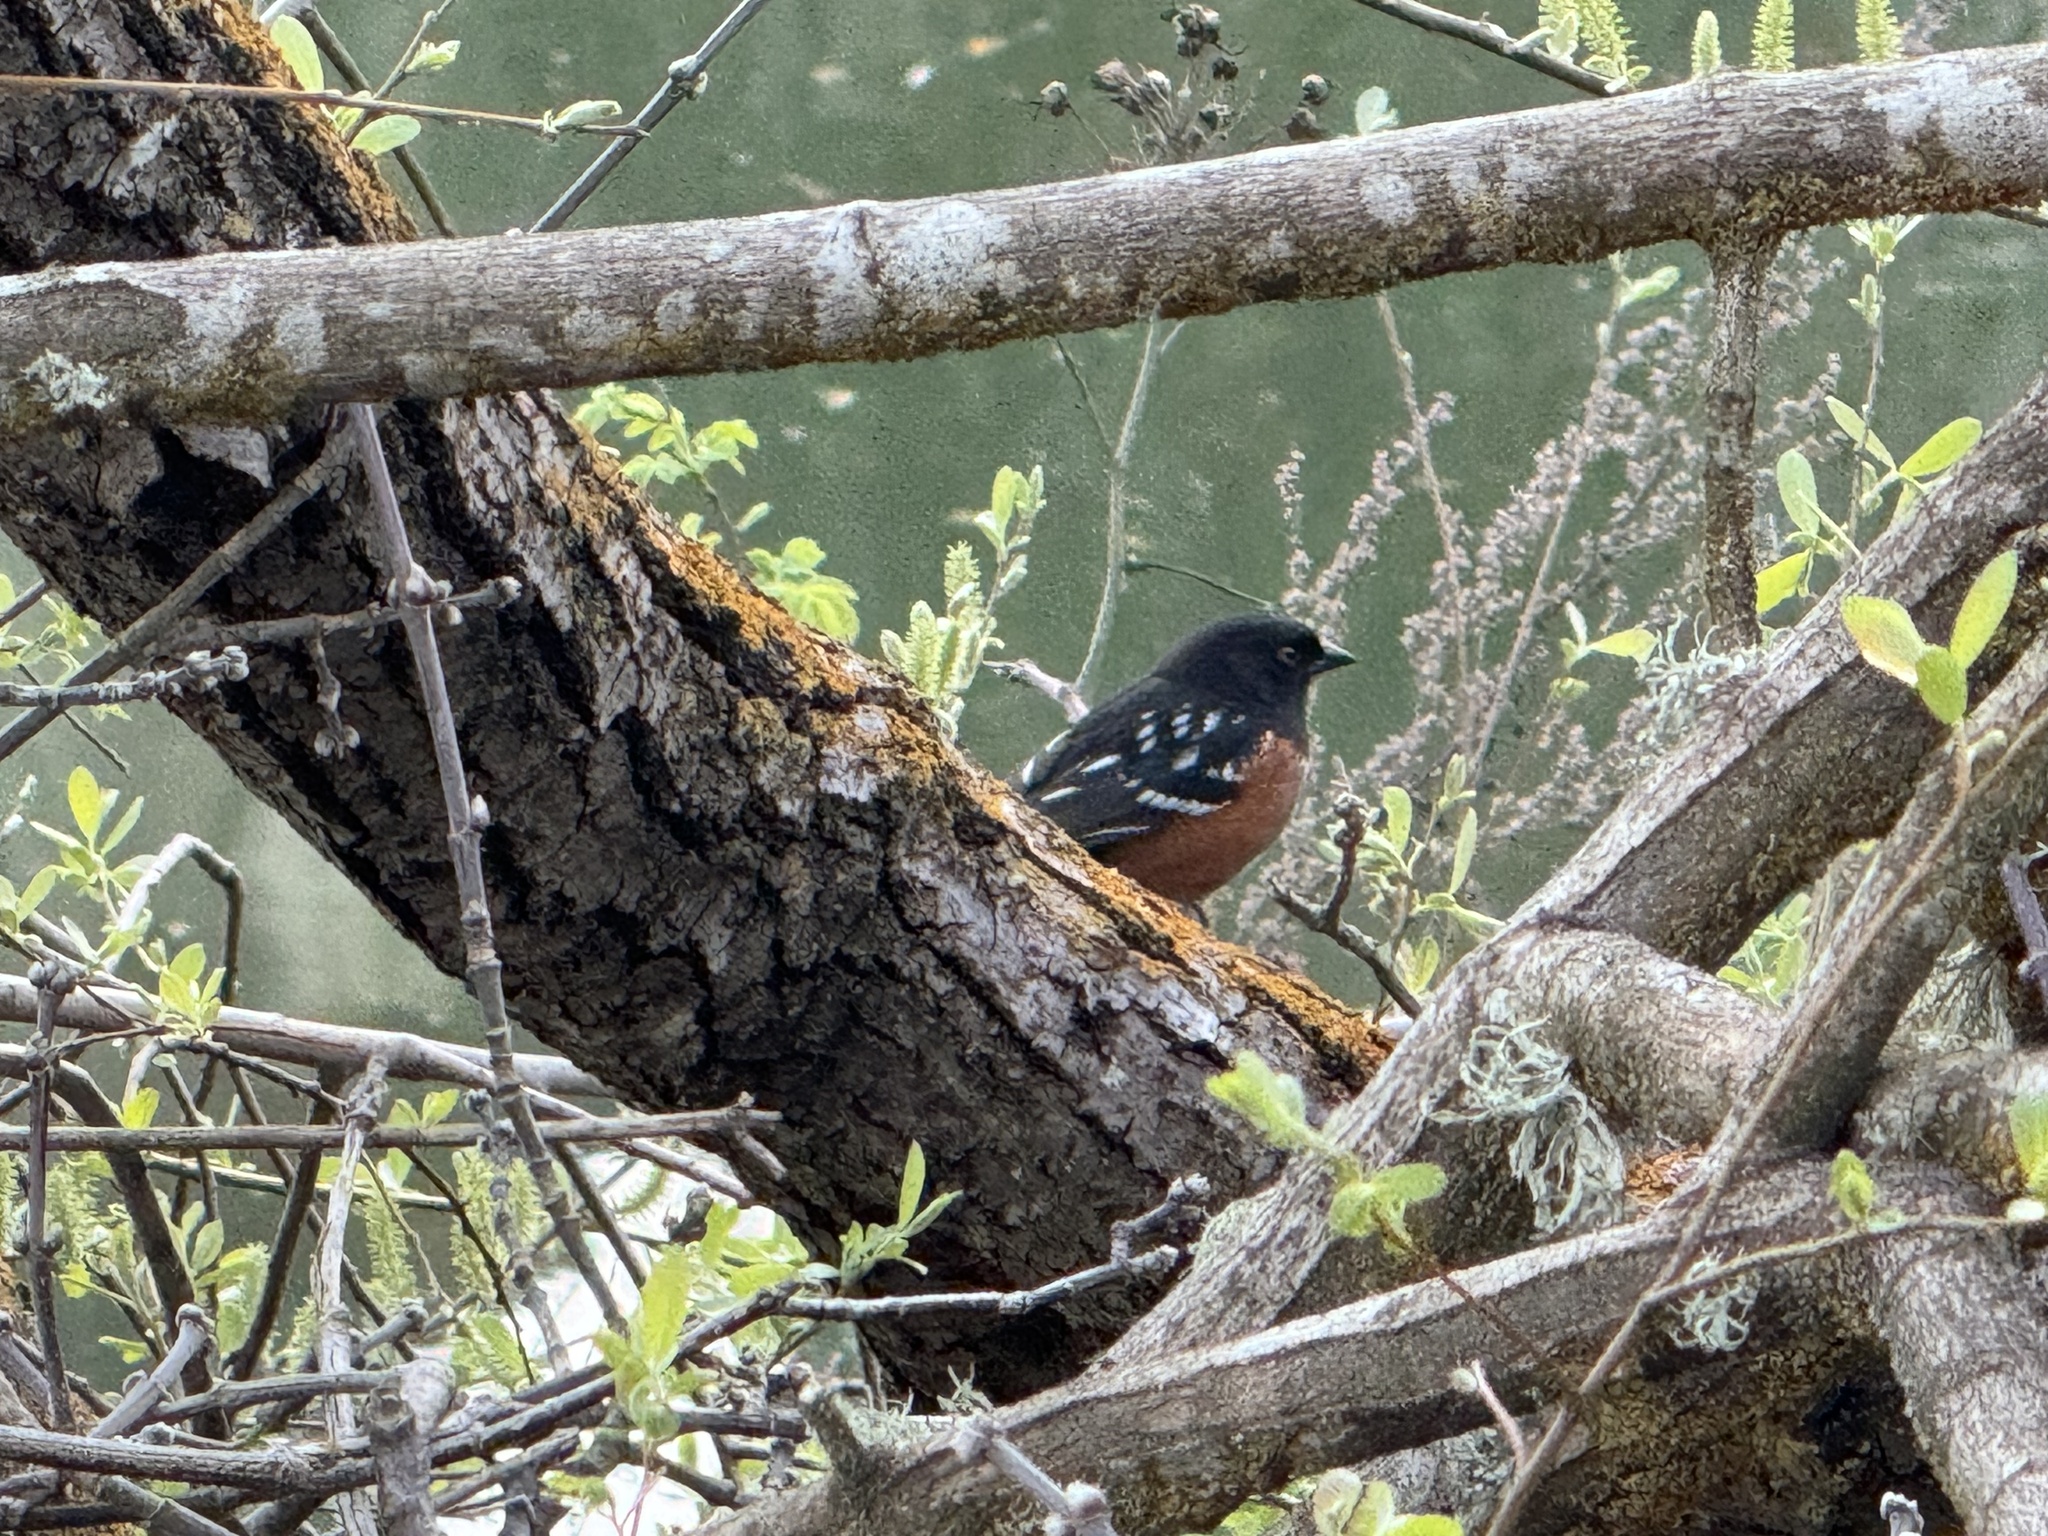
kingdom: Animalia
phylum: Chordata
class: Aves
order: Passeriformes
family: Passerellidae
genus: Pipilo
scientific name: Pipilo maculatus
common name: Spotted towhee
